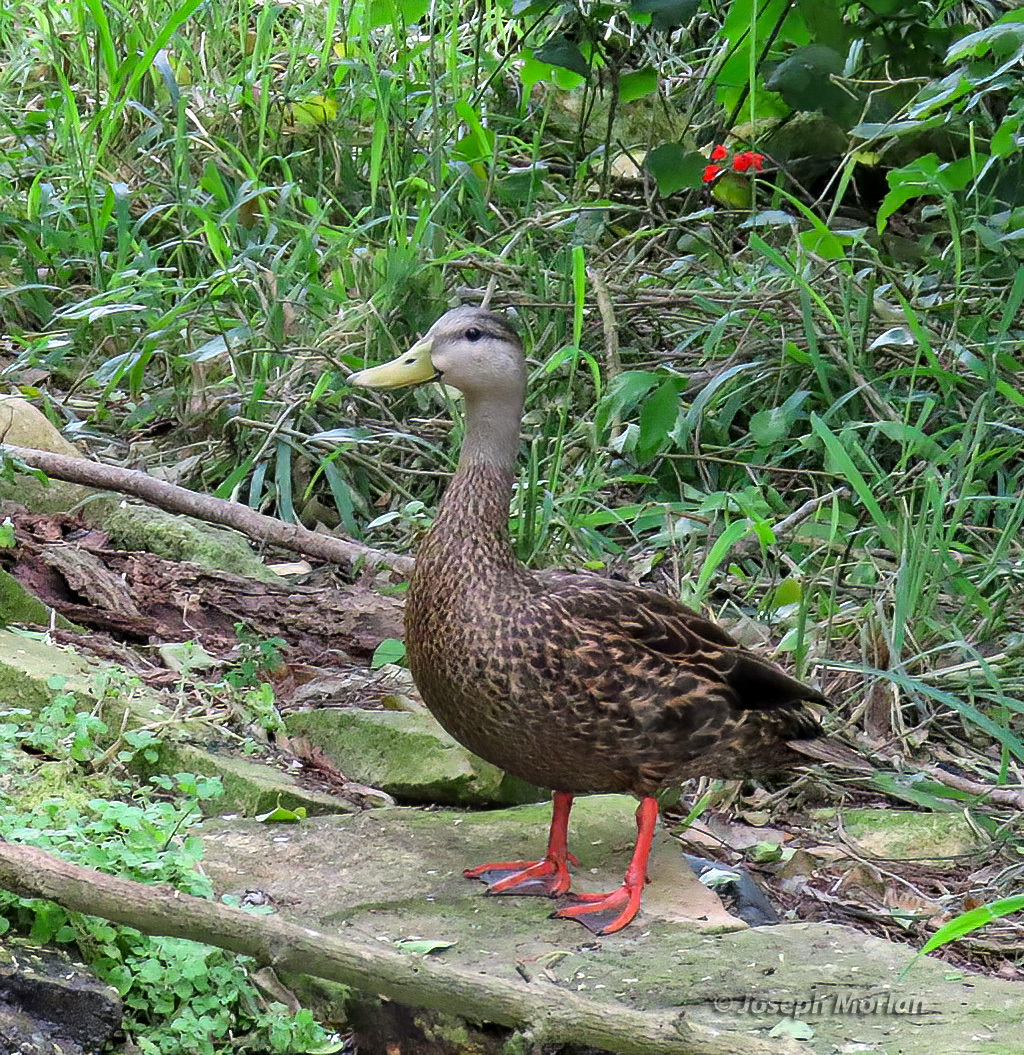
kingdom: Animalia
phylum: Chordata
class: Aves
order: Anseriformes
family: Anatidae
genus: Anas
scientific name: Anas fulvigula
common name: Mottled duck
